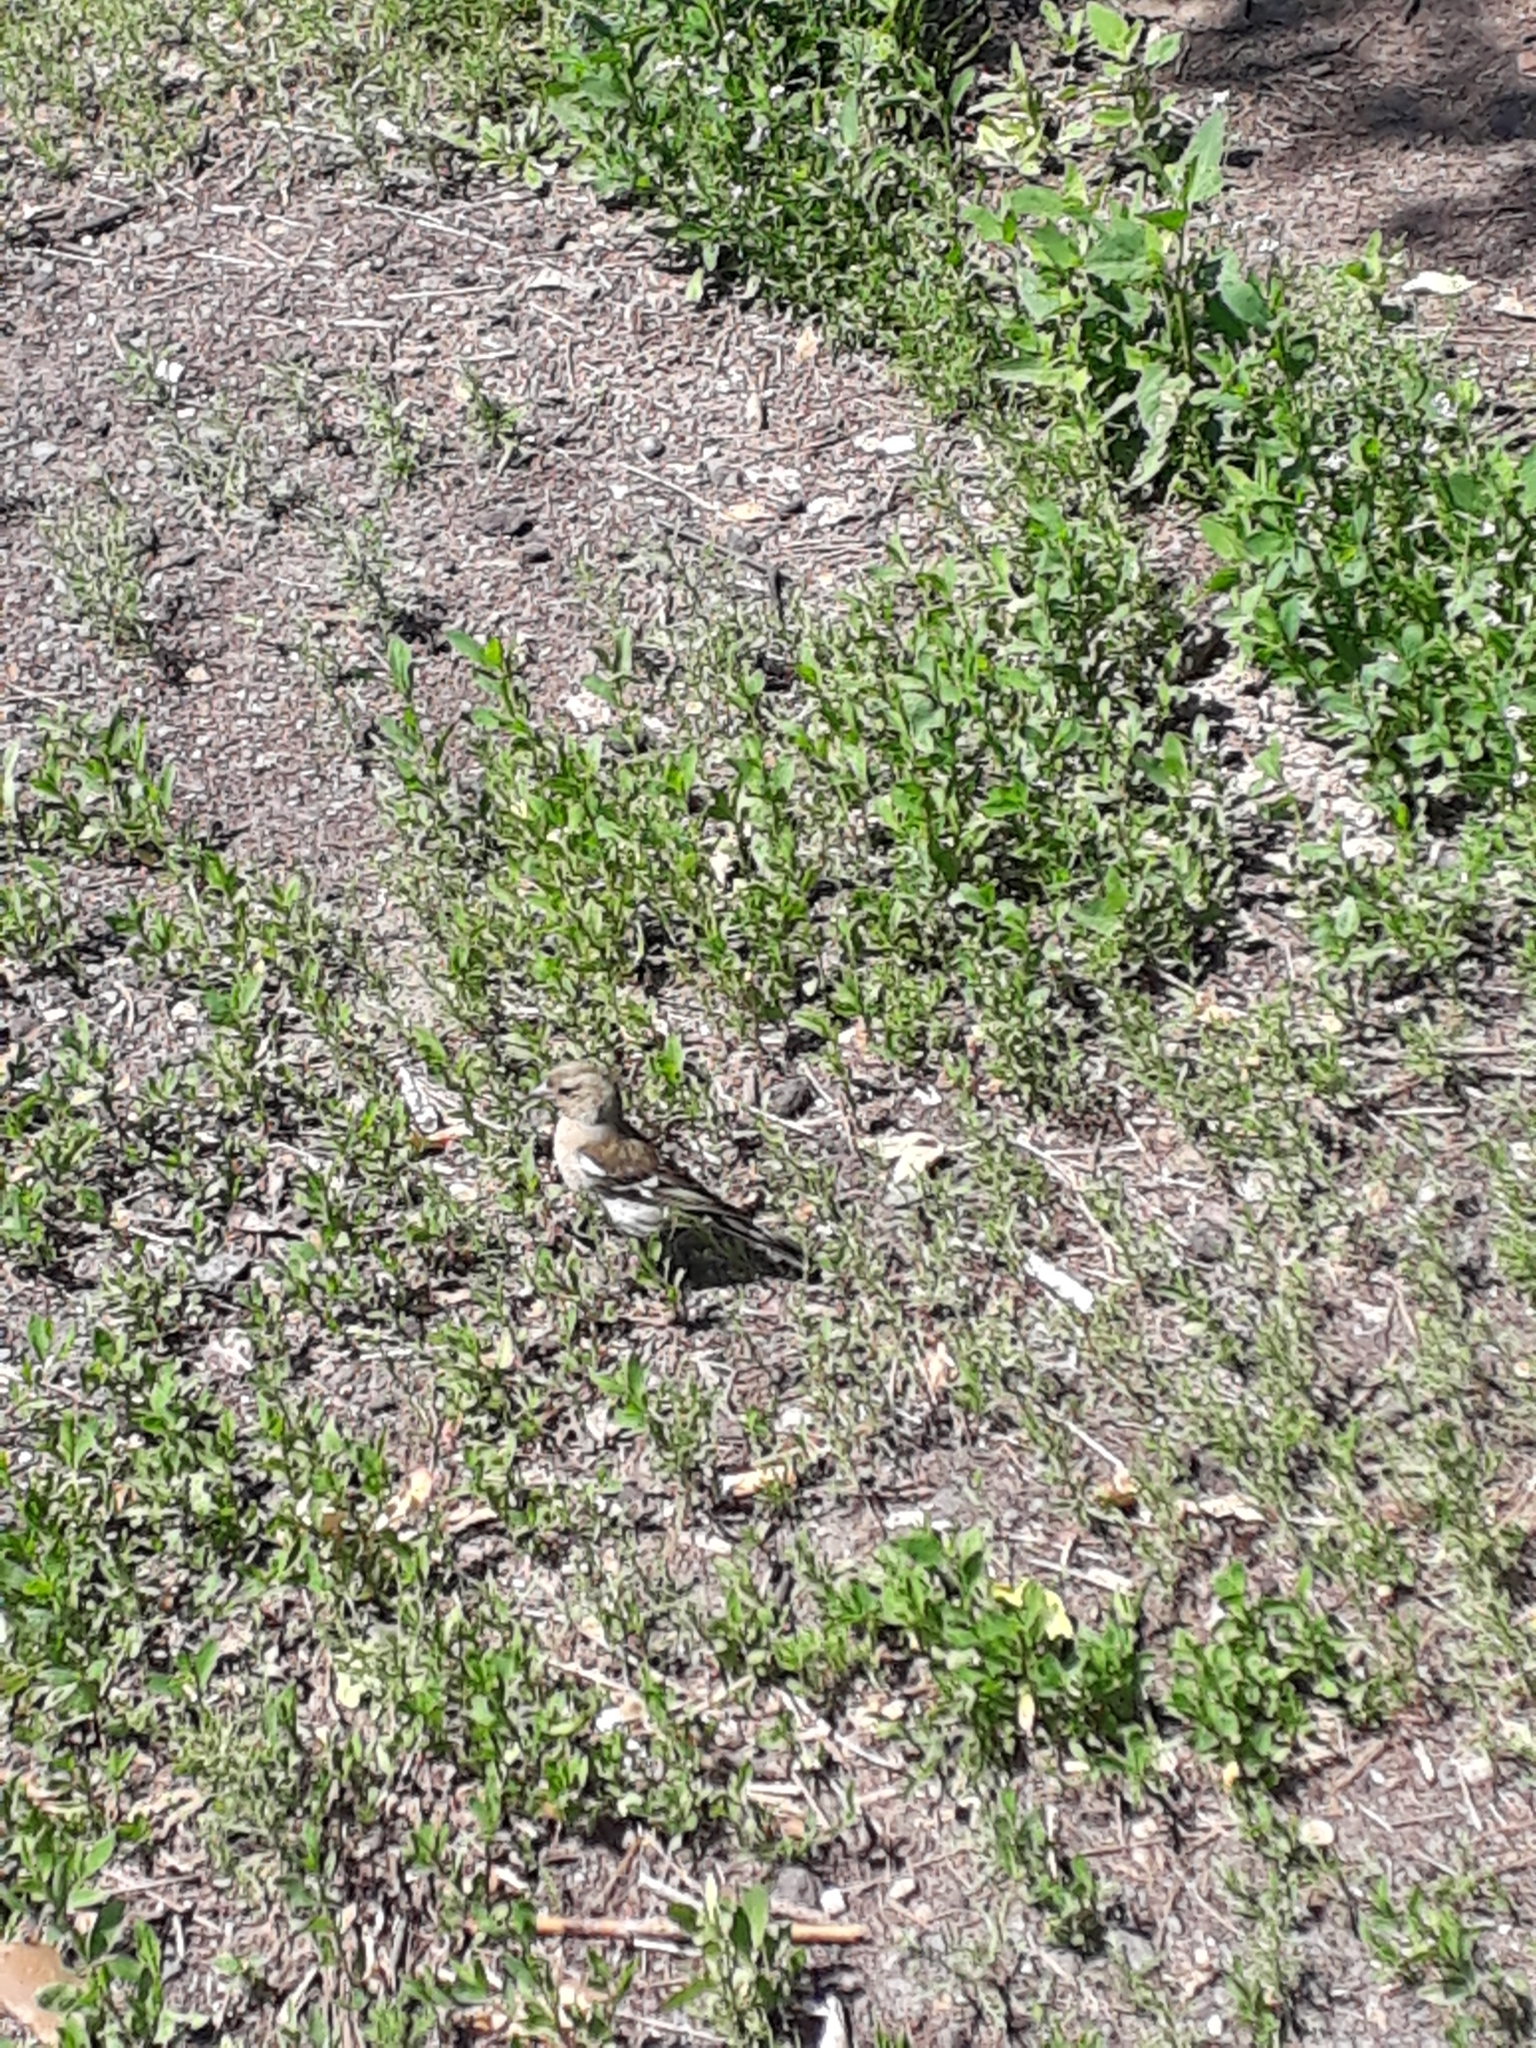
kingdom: Animalia
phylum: Chordata
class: Aves
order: Passeriformes
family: Fringillidae
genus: Fringilla
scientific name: Fringilla coelebs
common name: Common chaffinch
